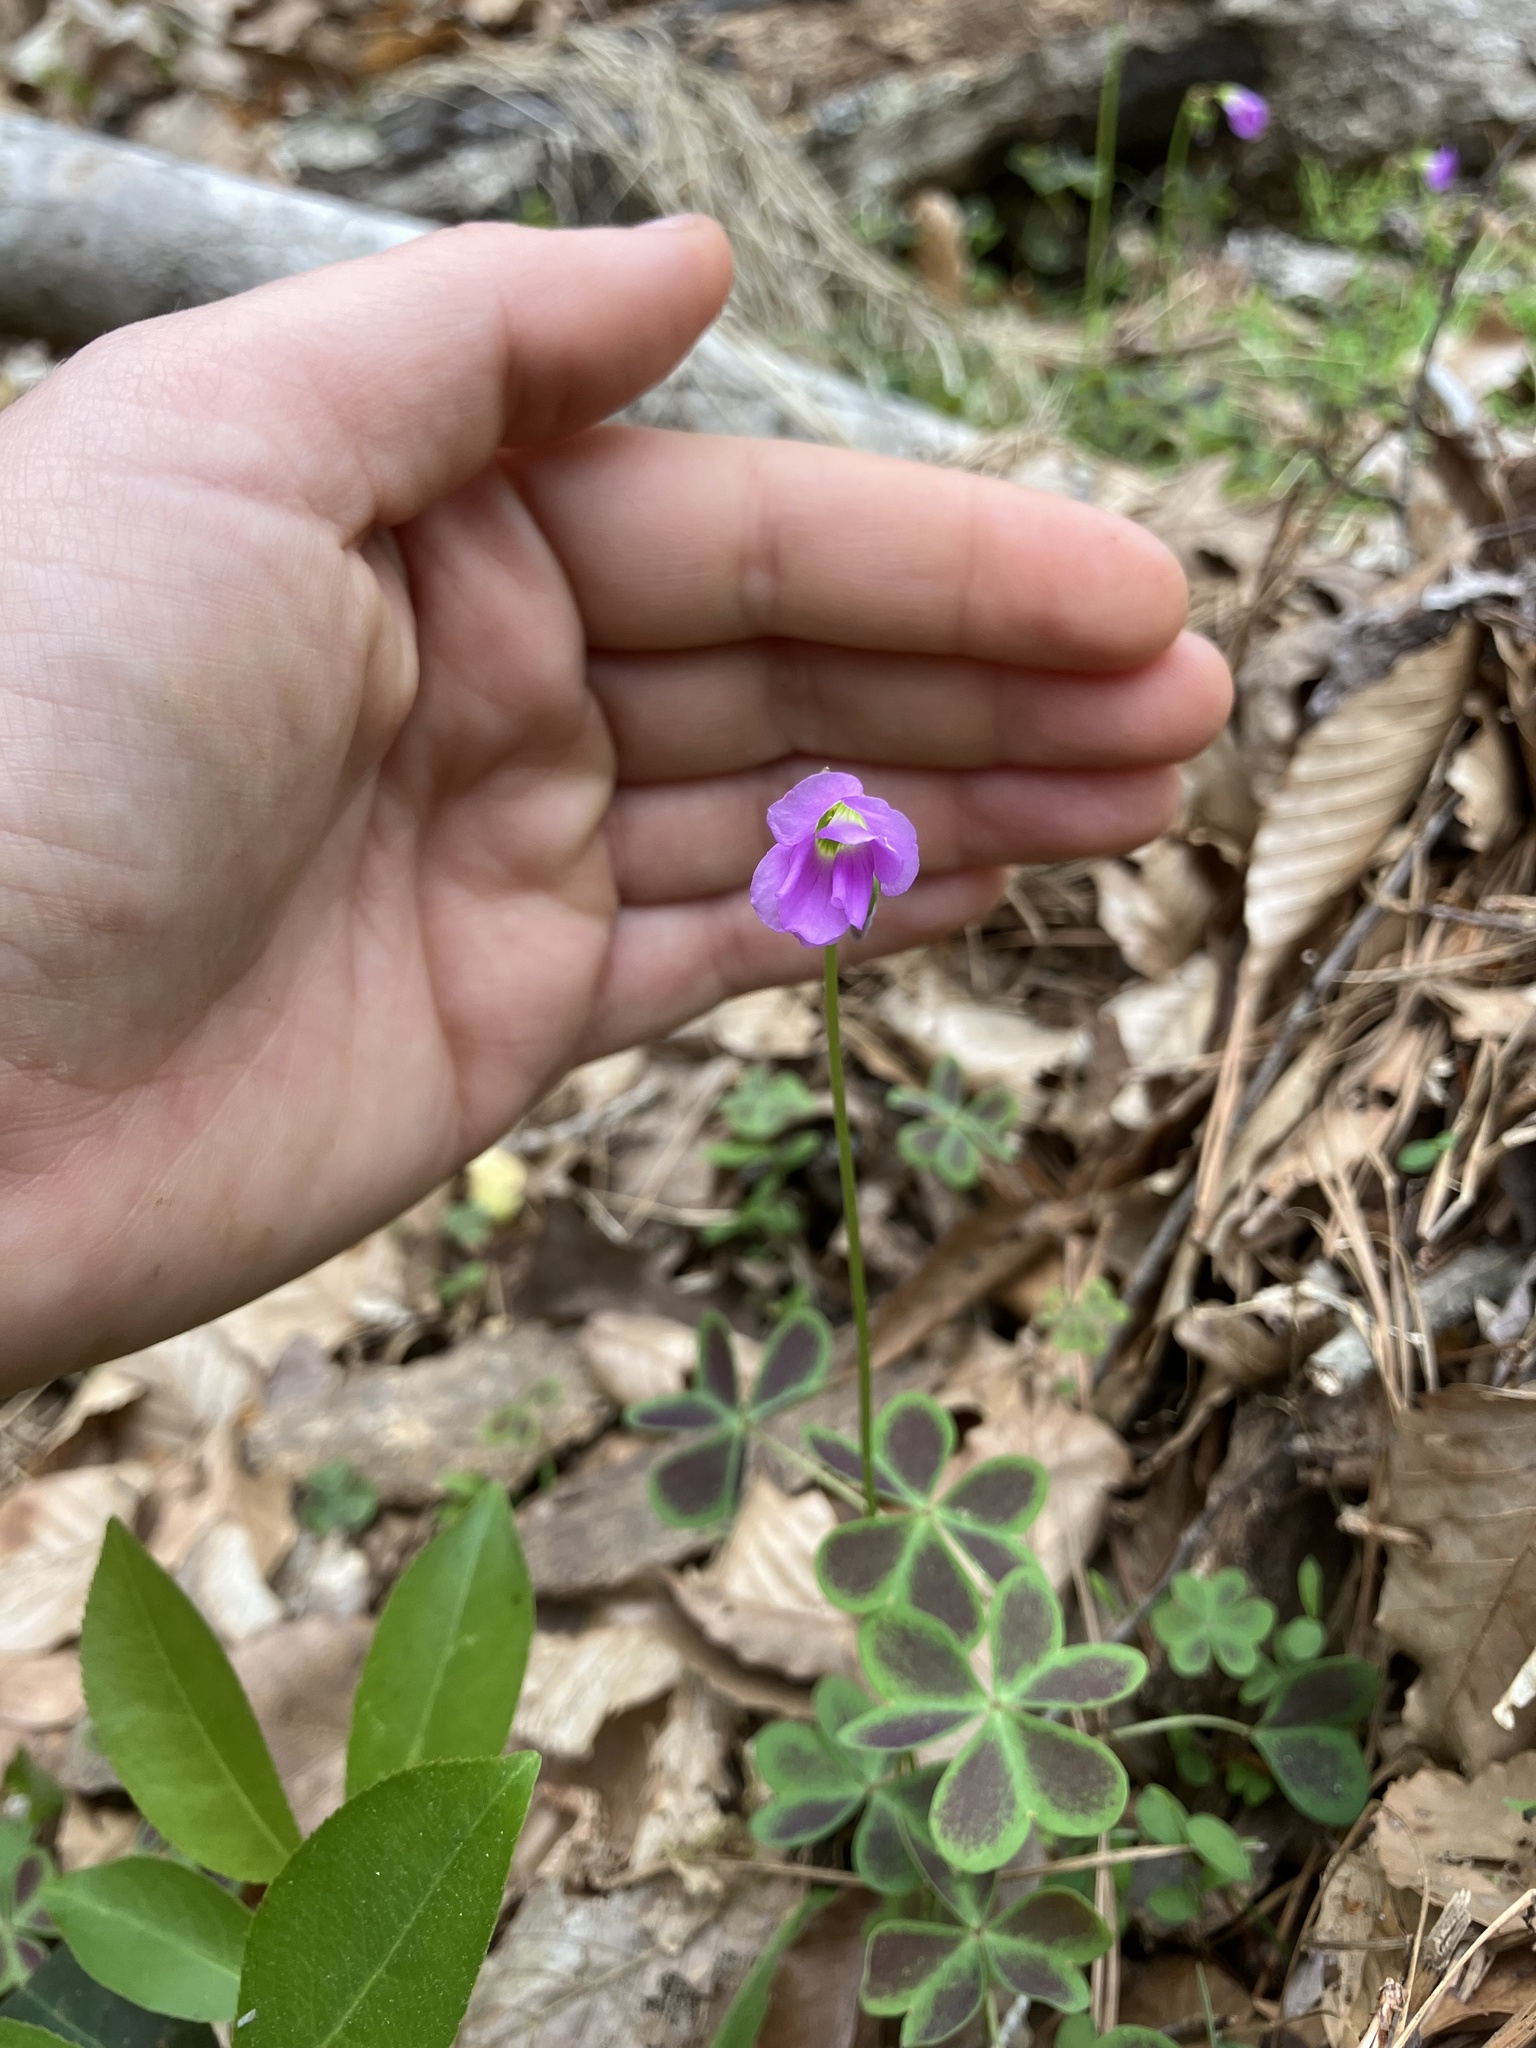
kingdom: Plantae
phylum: Tracheophyta
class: Magnoliopsida
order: Oxalidales
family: Oxalidaceae
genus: Oxalis
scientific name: Oxalis violacea
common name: Violet wood-sorrel
